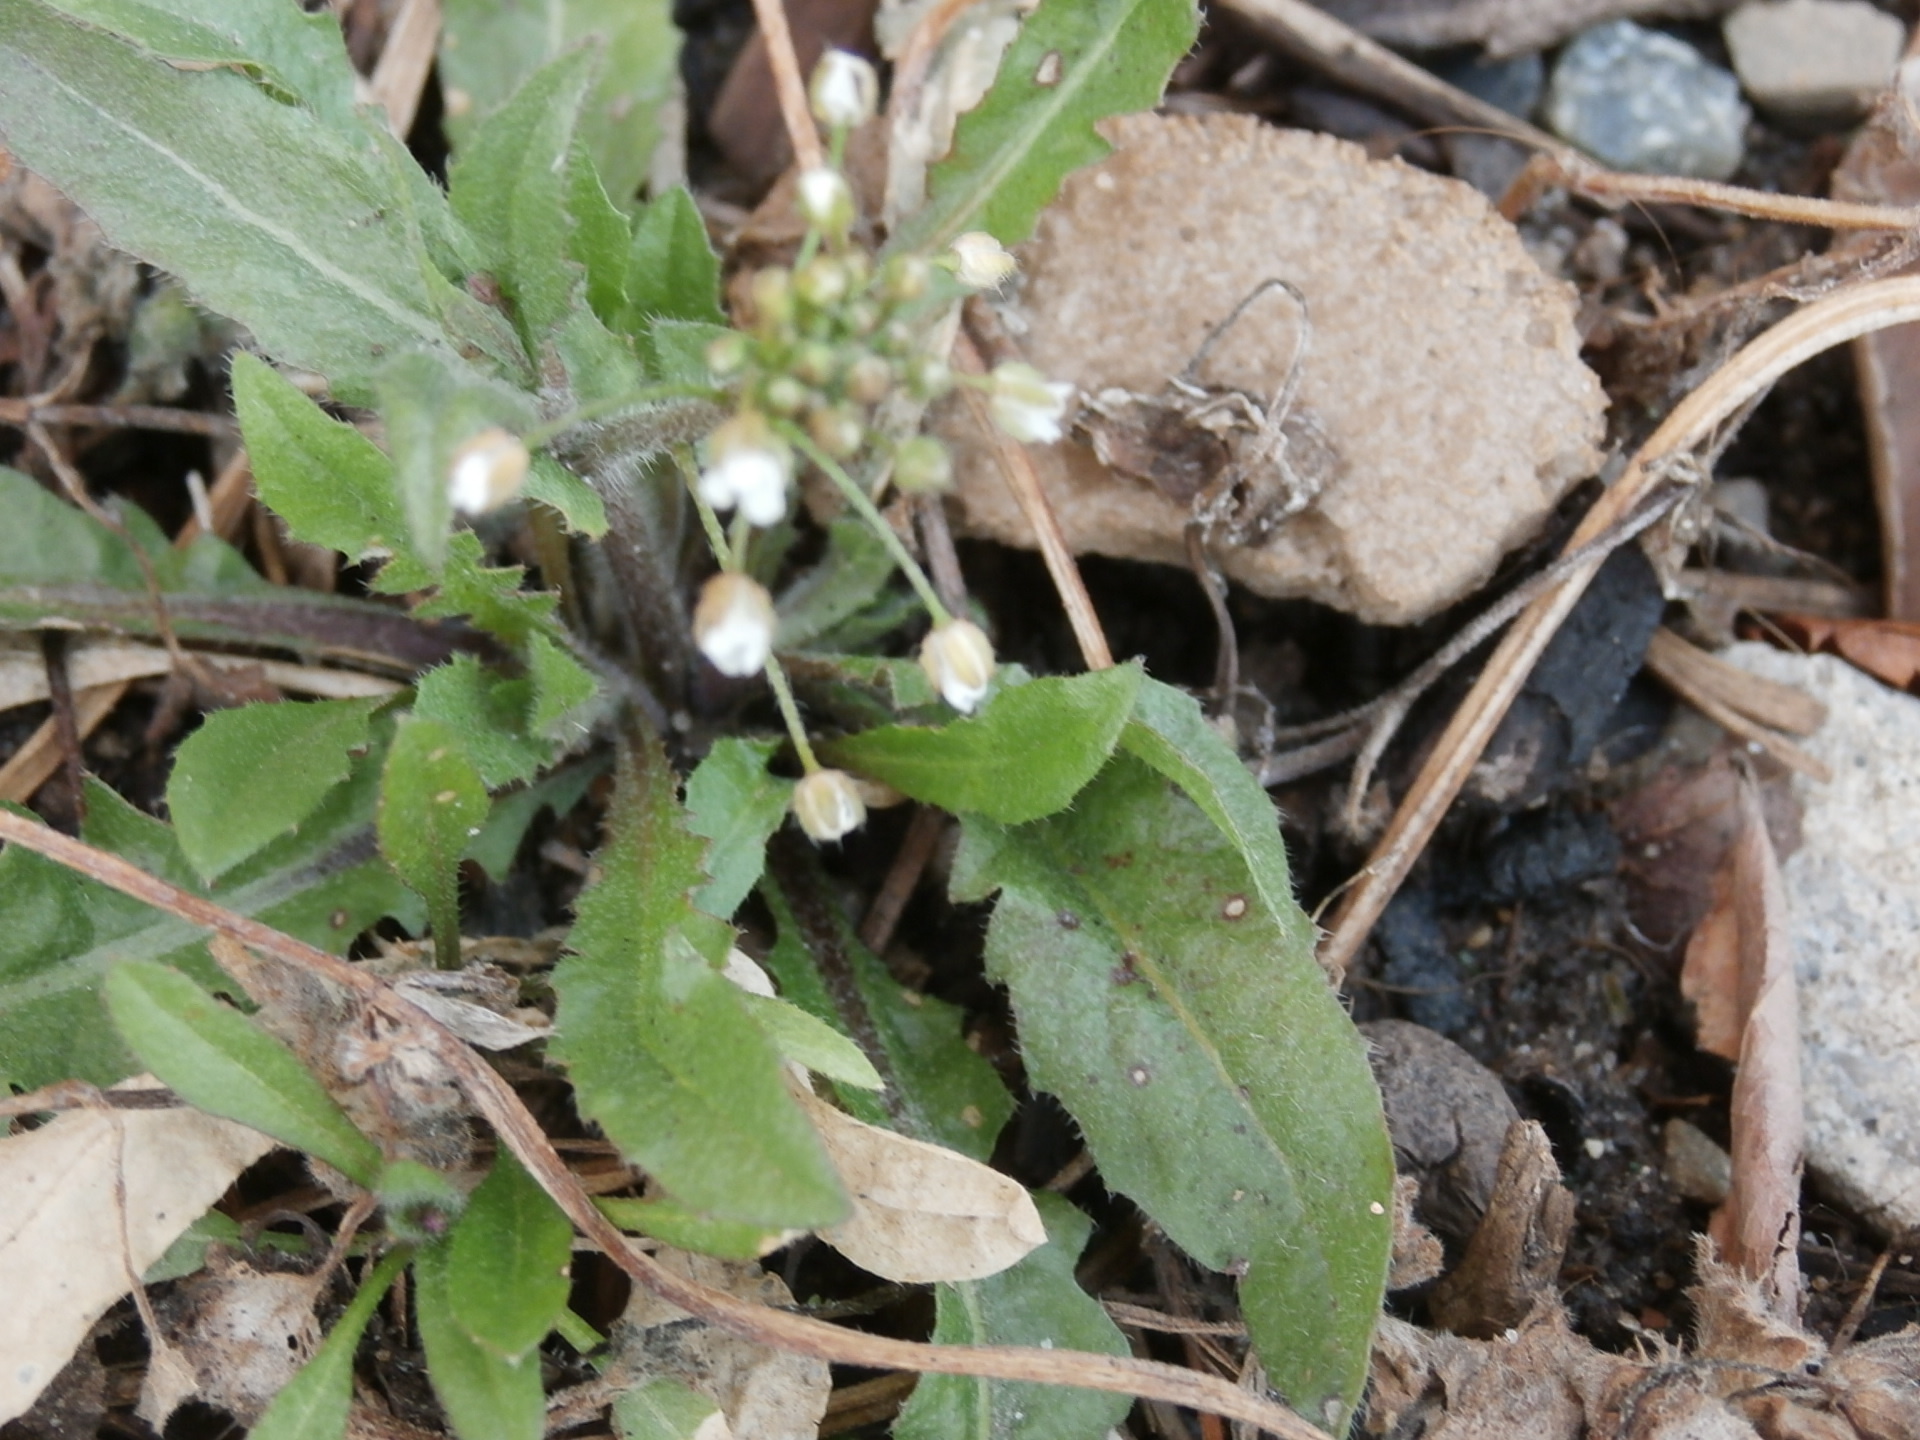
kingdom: Plantae
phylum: Tracheophyta
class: Magnoliopsida
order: Brassicales
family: Brassicaceae
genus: Capsella
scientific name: Capsella bursa-pastoris
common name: Shepherd's purse
